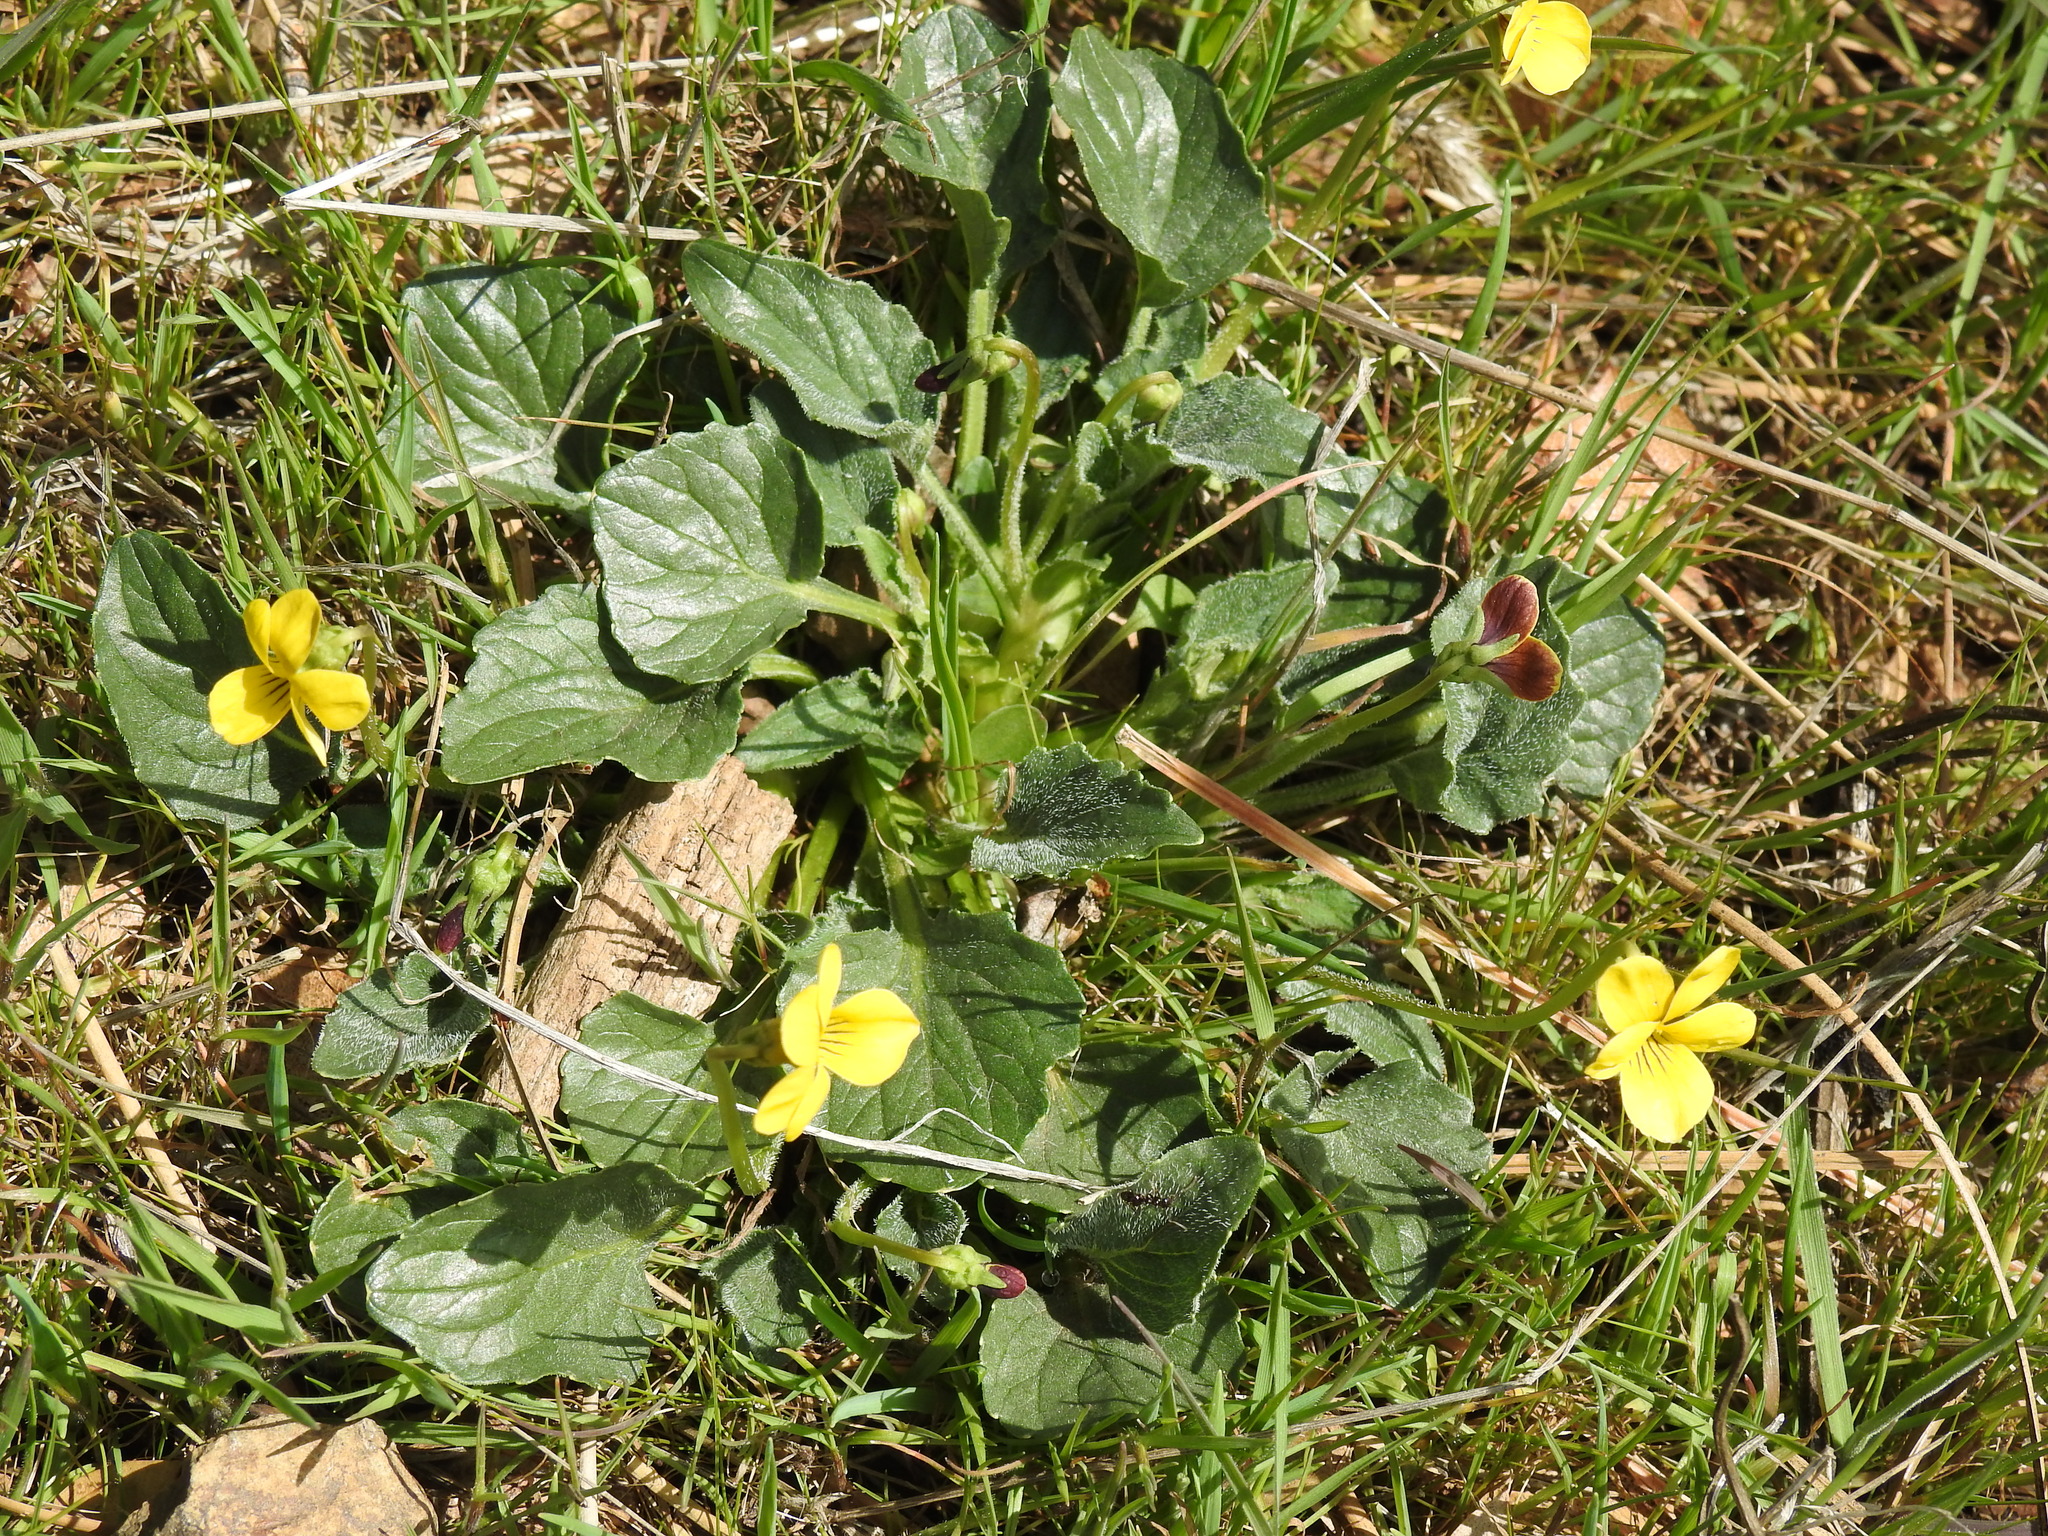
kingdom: Plantae
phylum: Tracheophyta
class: Magnoliopsida
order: Malpighiales
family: Violaceae
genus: Viola
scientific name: Viola purpurea
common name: Pine violet
